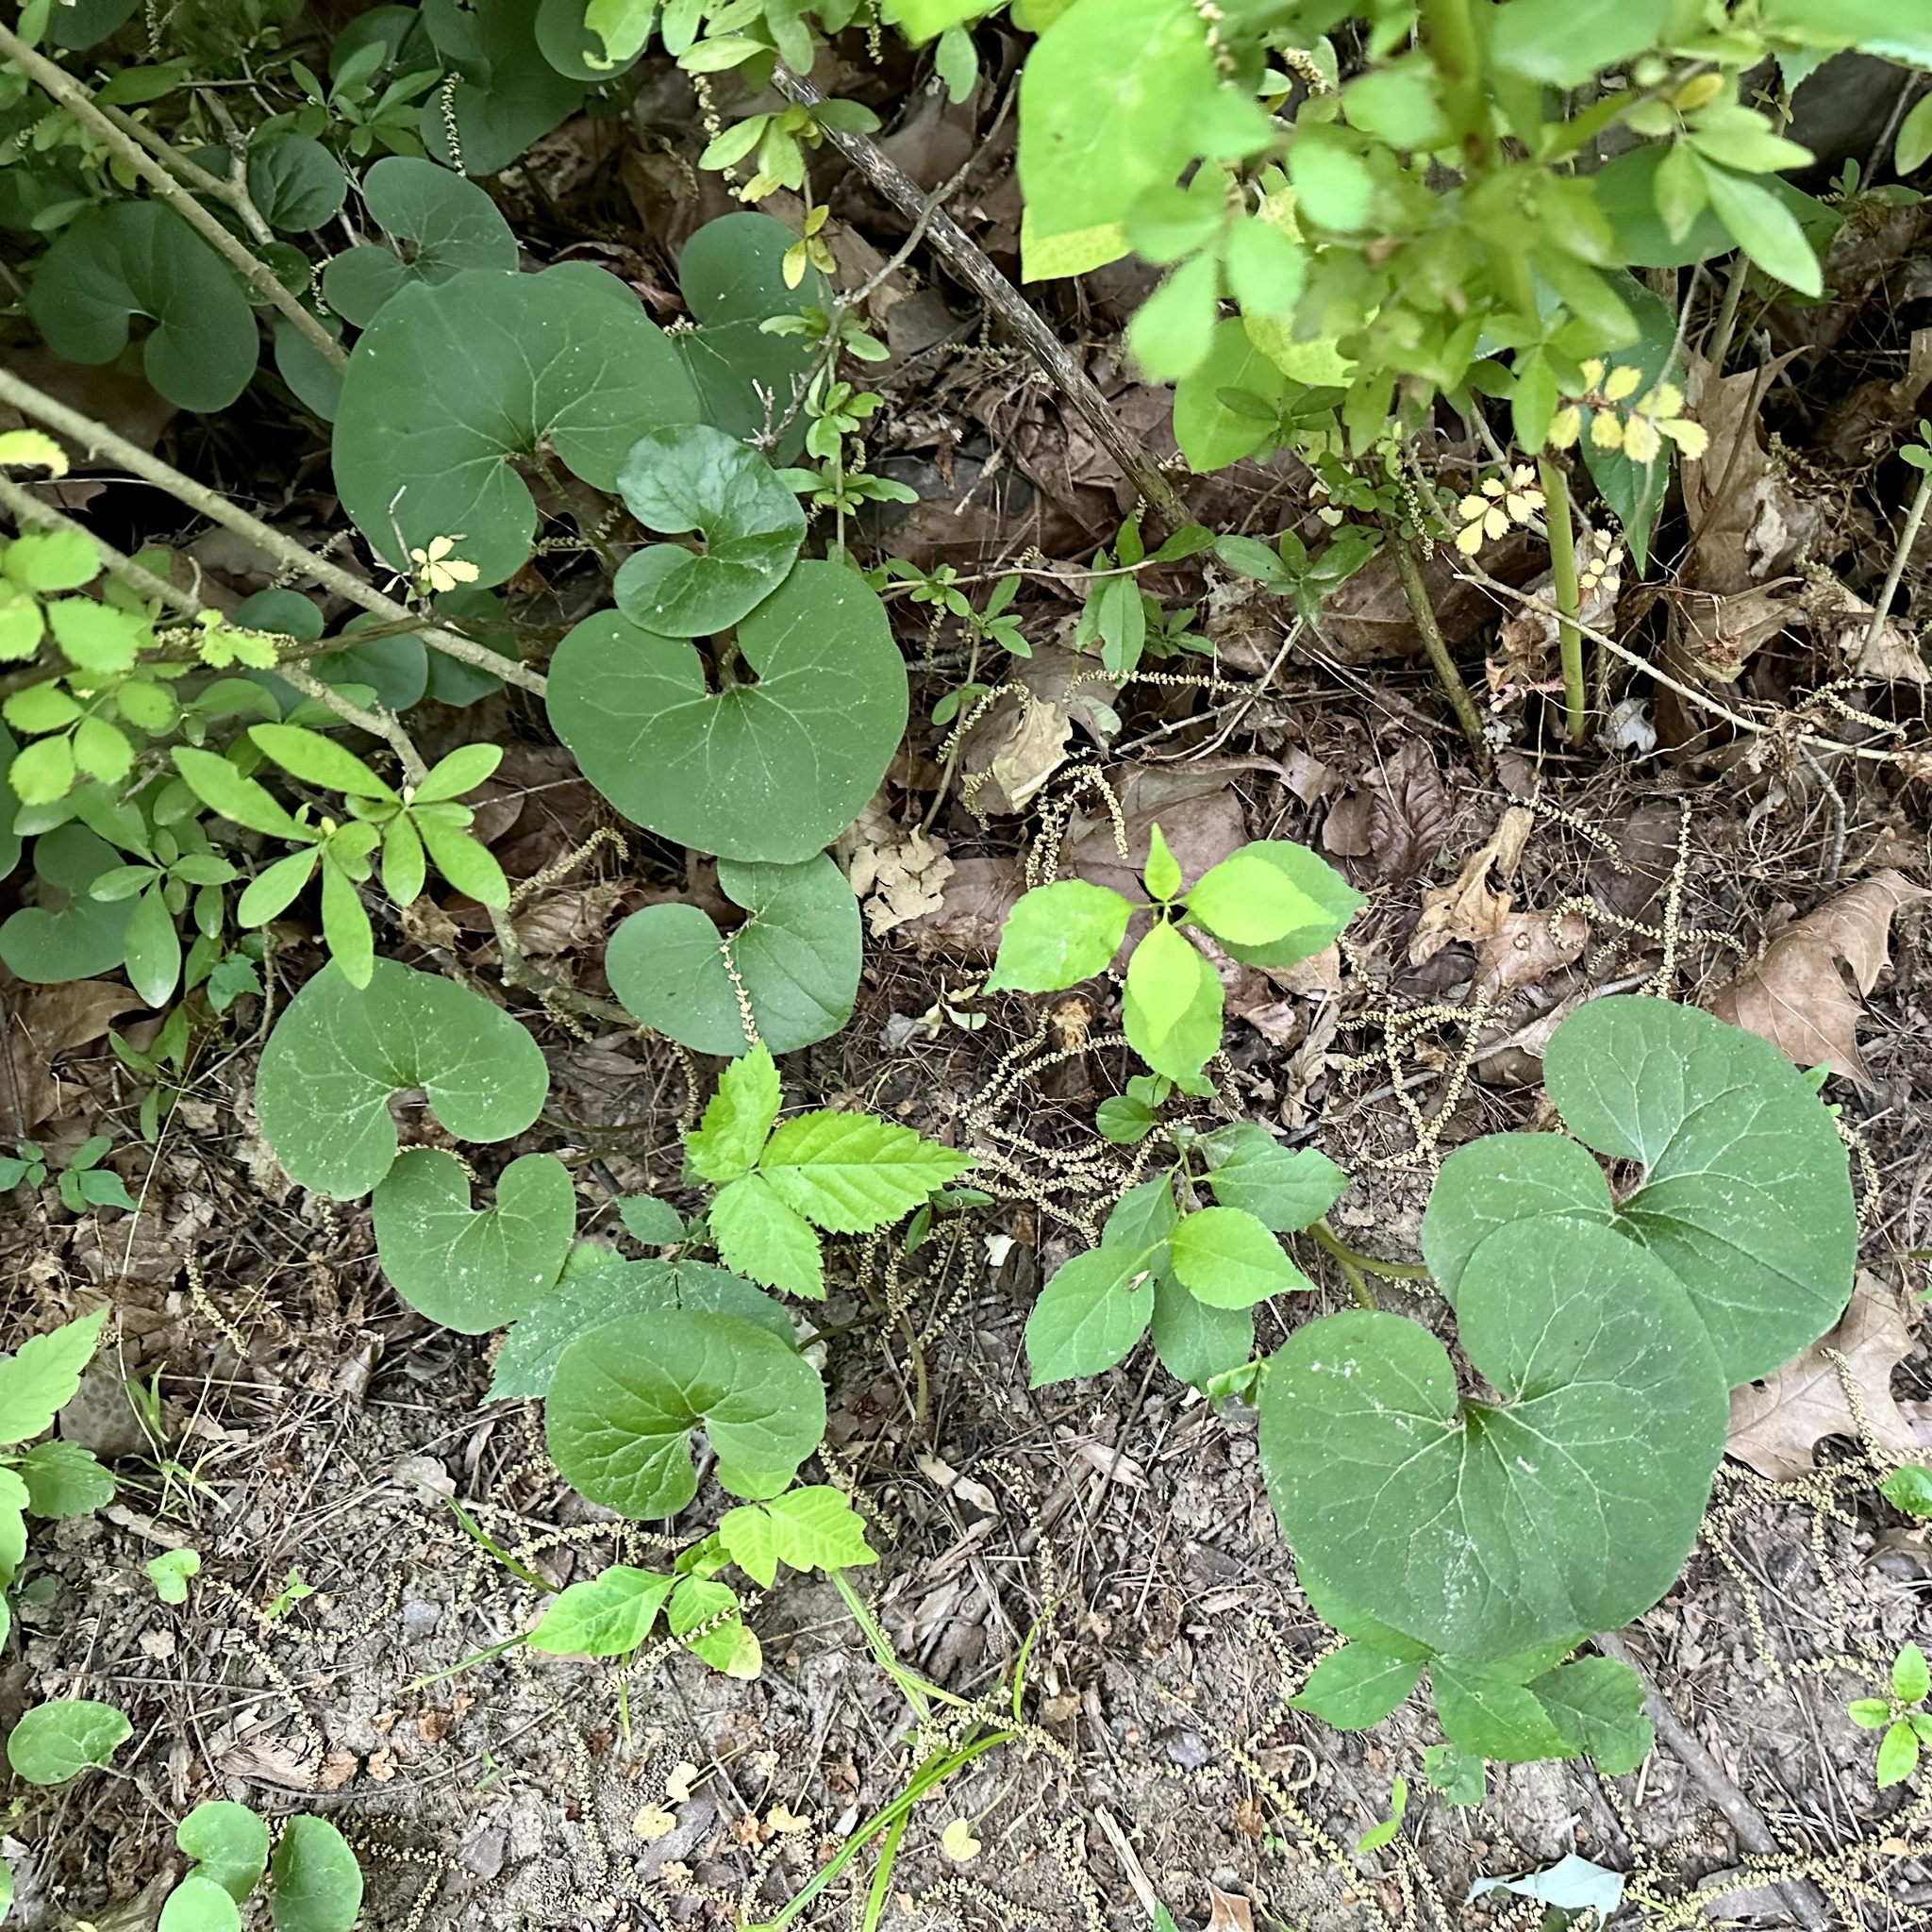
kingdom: Plantae
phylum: Tracheophyta
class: Magnoliopsida
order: Piperales
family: Aristolochiaceae
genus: Asarum
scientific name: Asarum canadense
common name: Wild ginger
